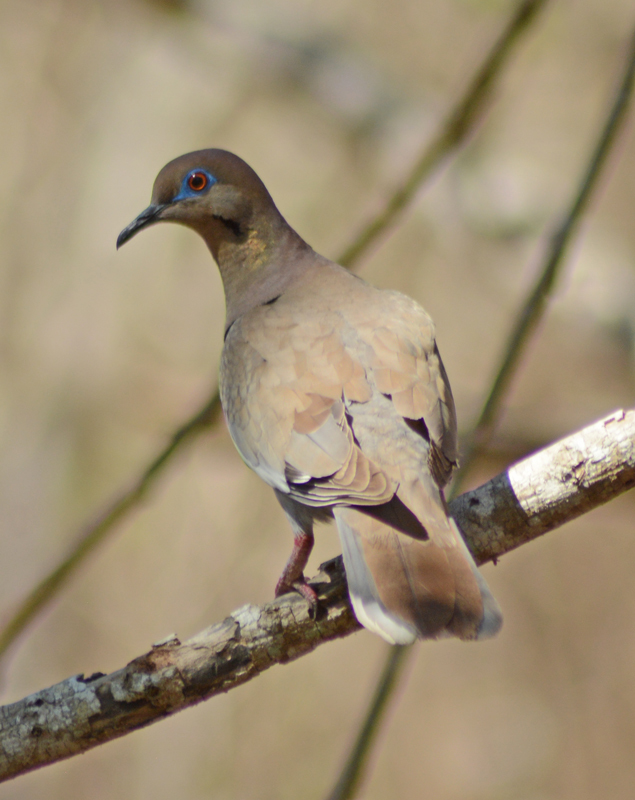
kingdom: Animalia
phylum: Chordata
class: Aves
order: Columbiformes
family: Columbidae
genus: Zenaida
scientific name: Zenaida asiatica
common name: White-winged dove
